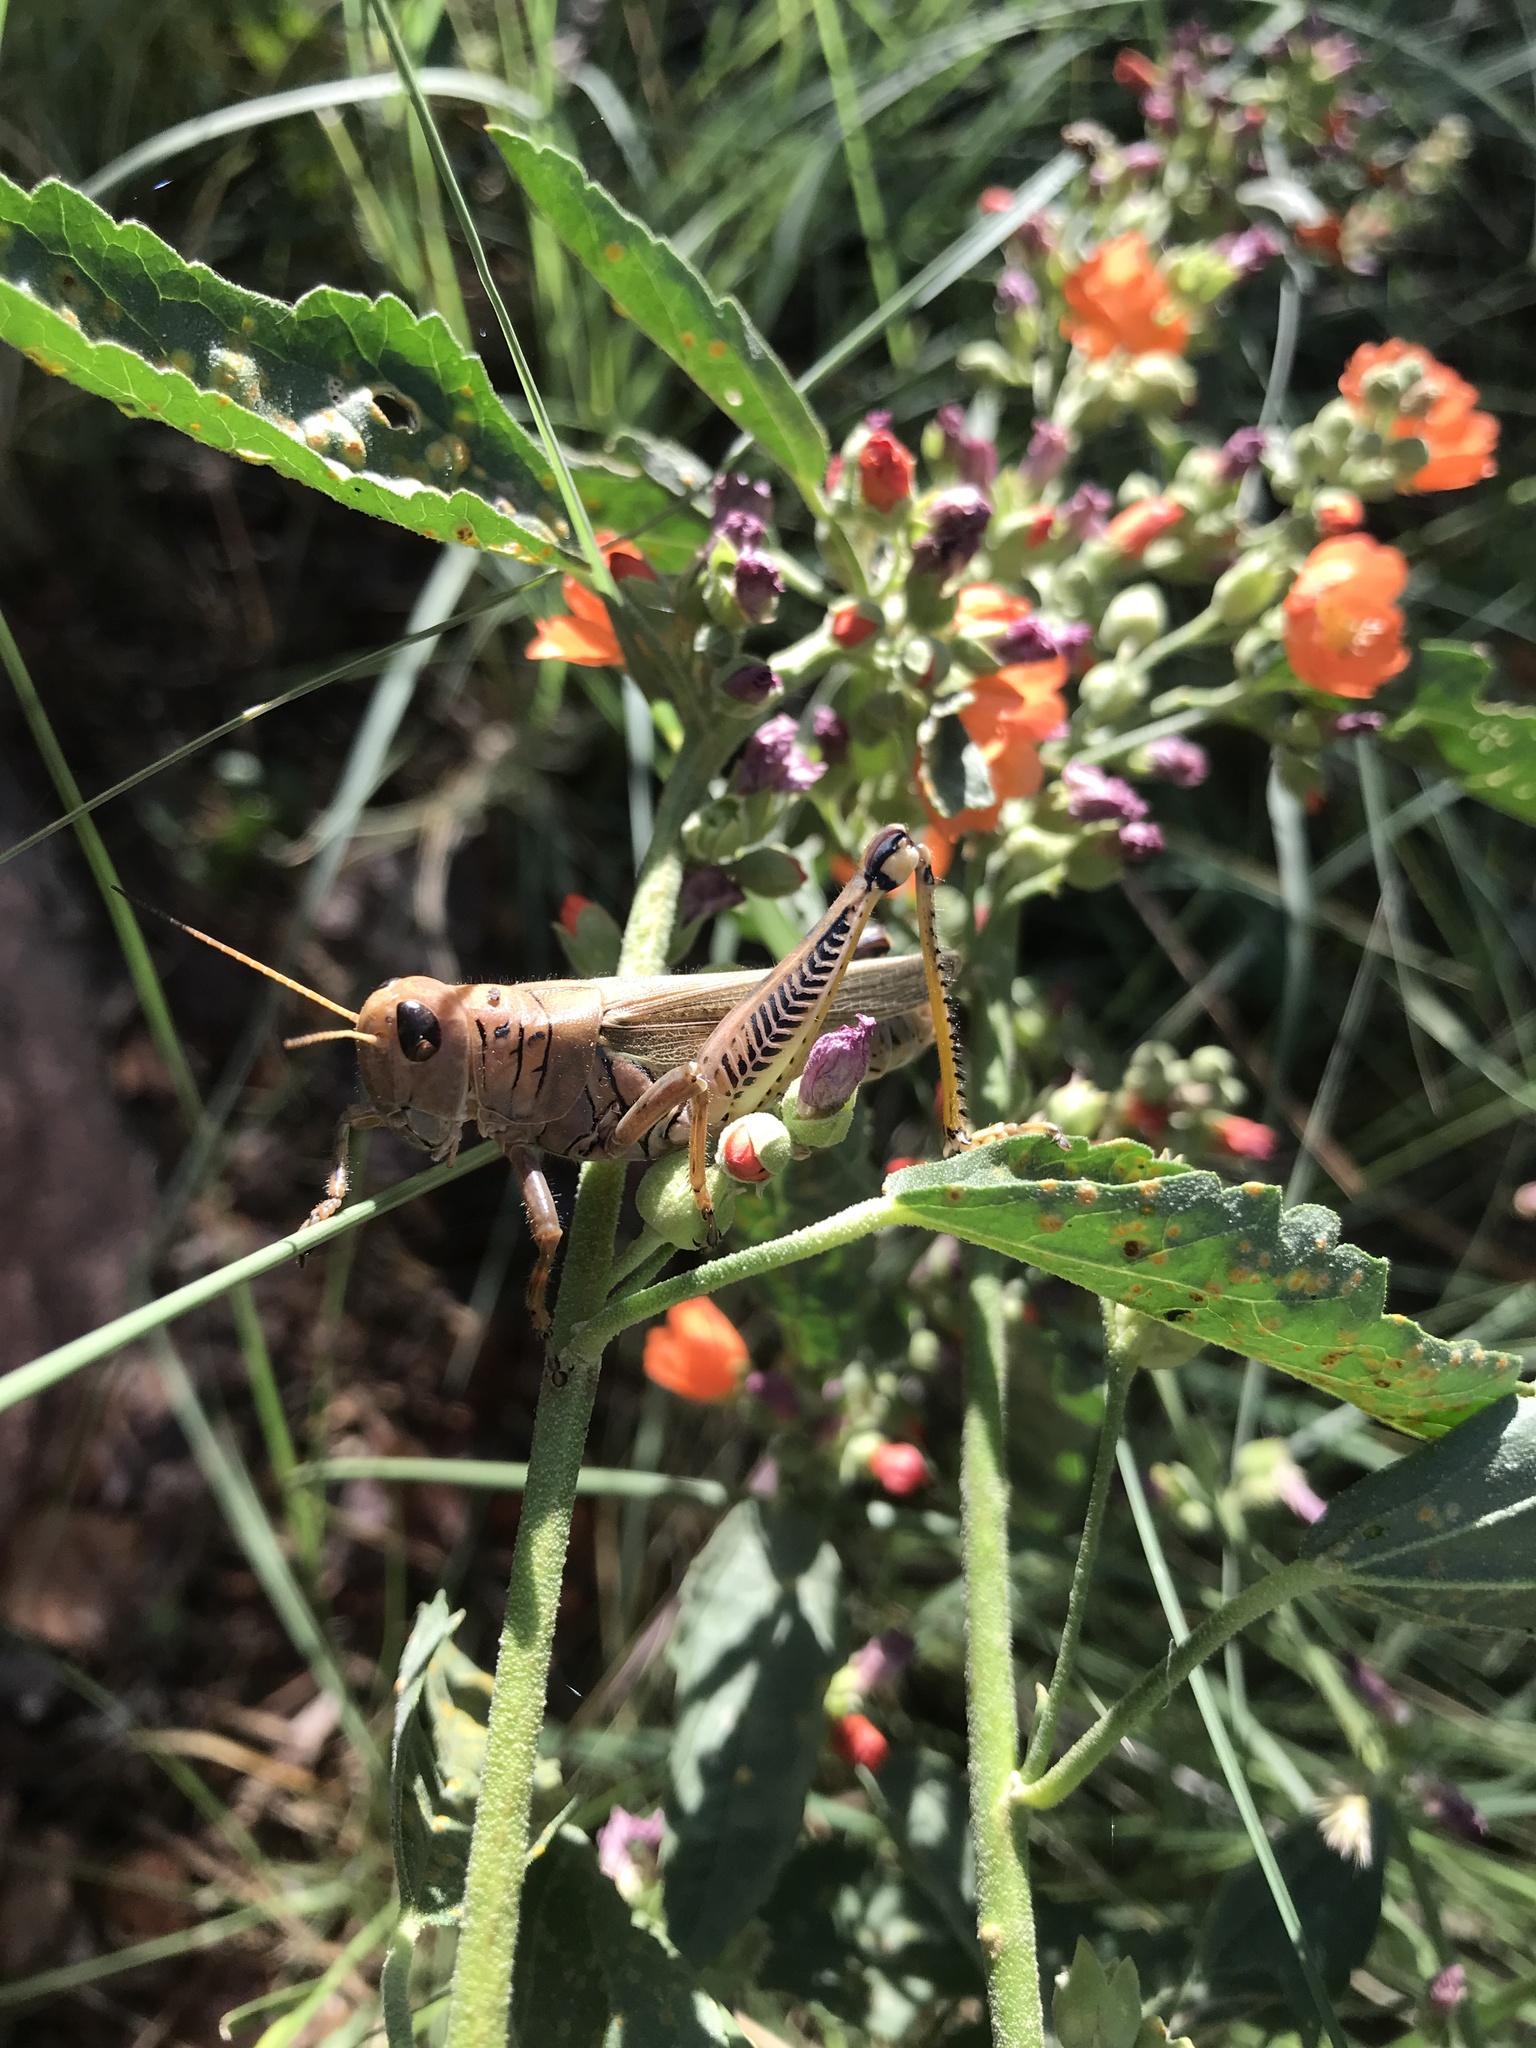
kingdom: Animalia
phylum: Arthropoda
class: Insecta
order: Orthoptera
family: Acrididae
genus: Melanoplus
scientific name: Melanoplus differentialis
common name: Differential grasshopper
